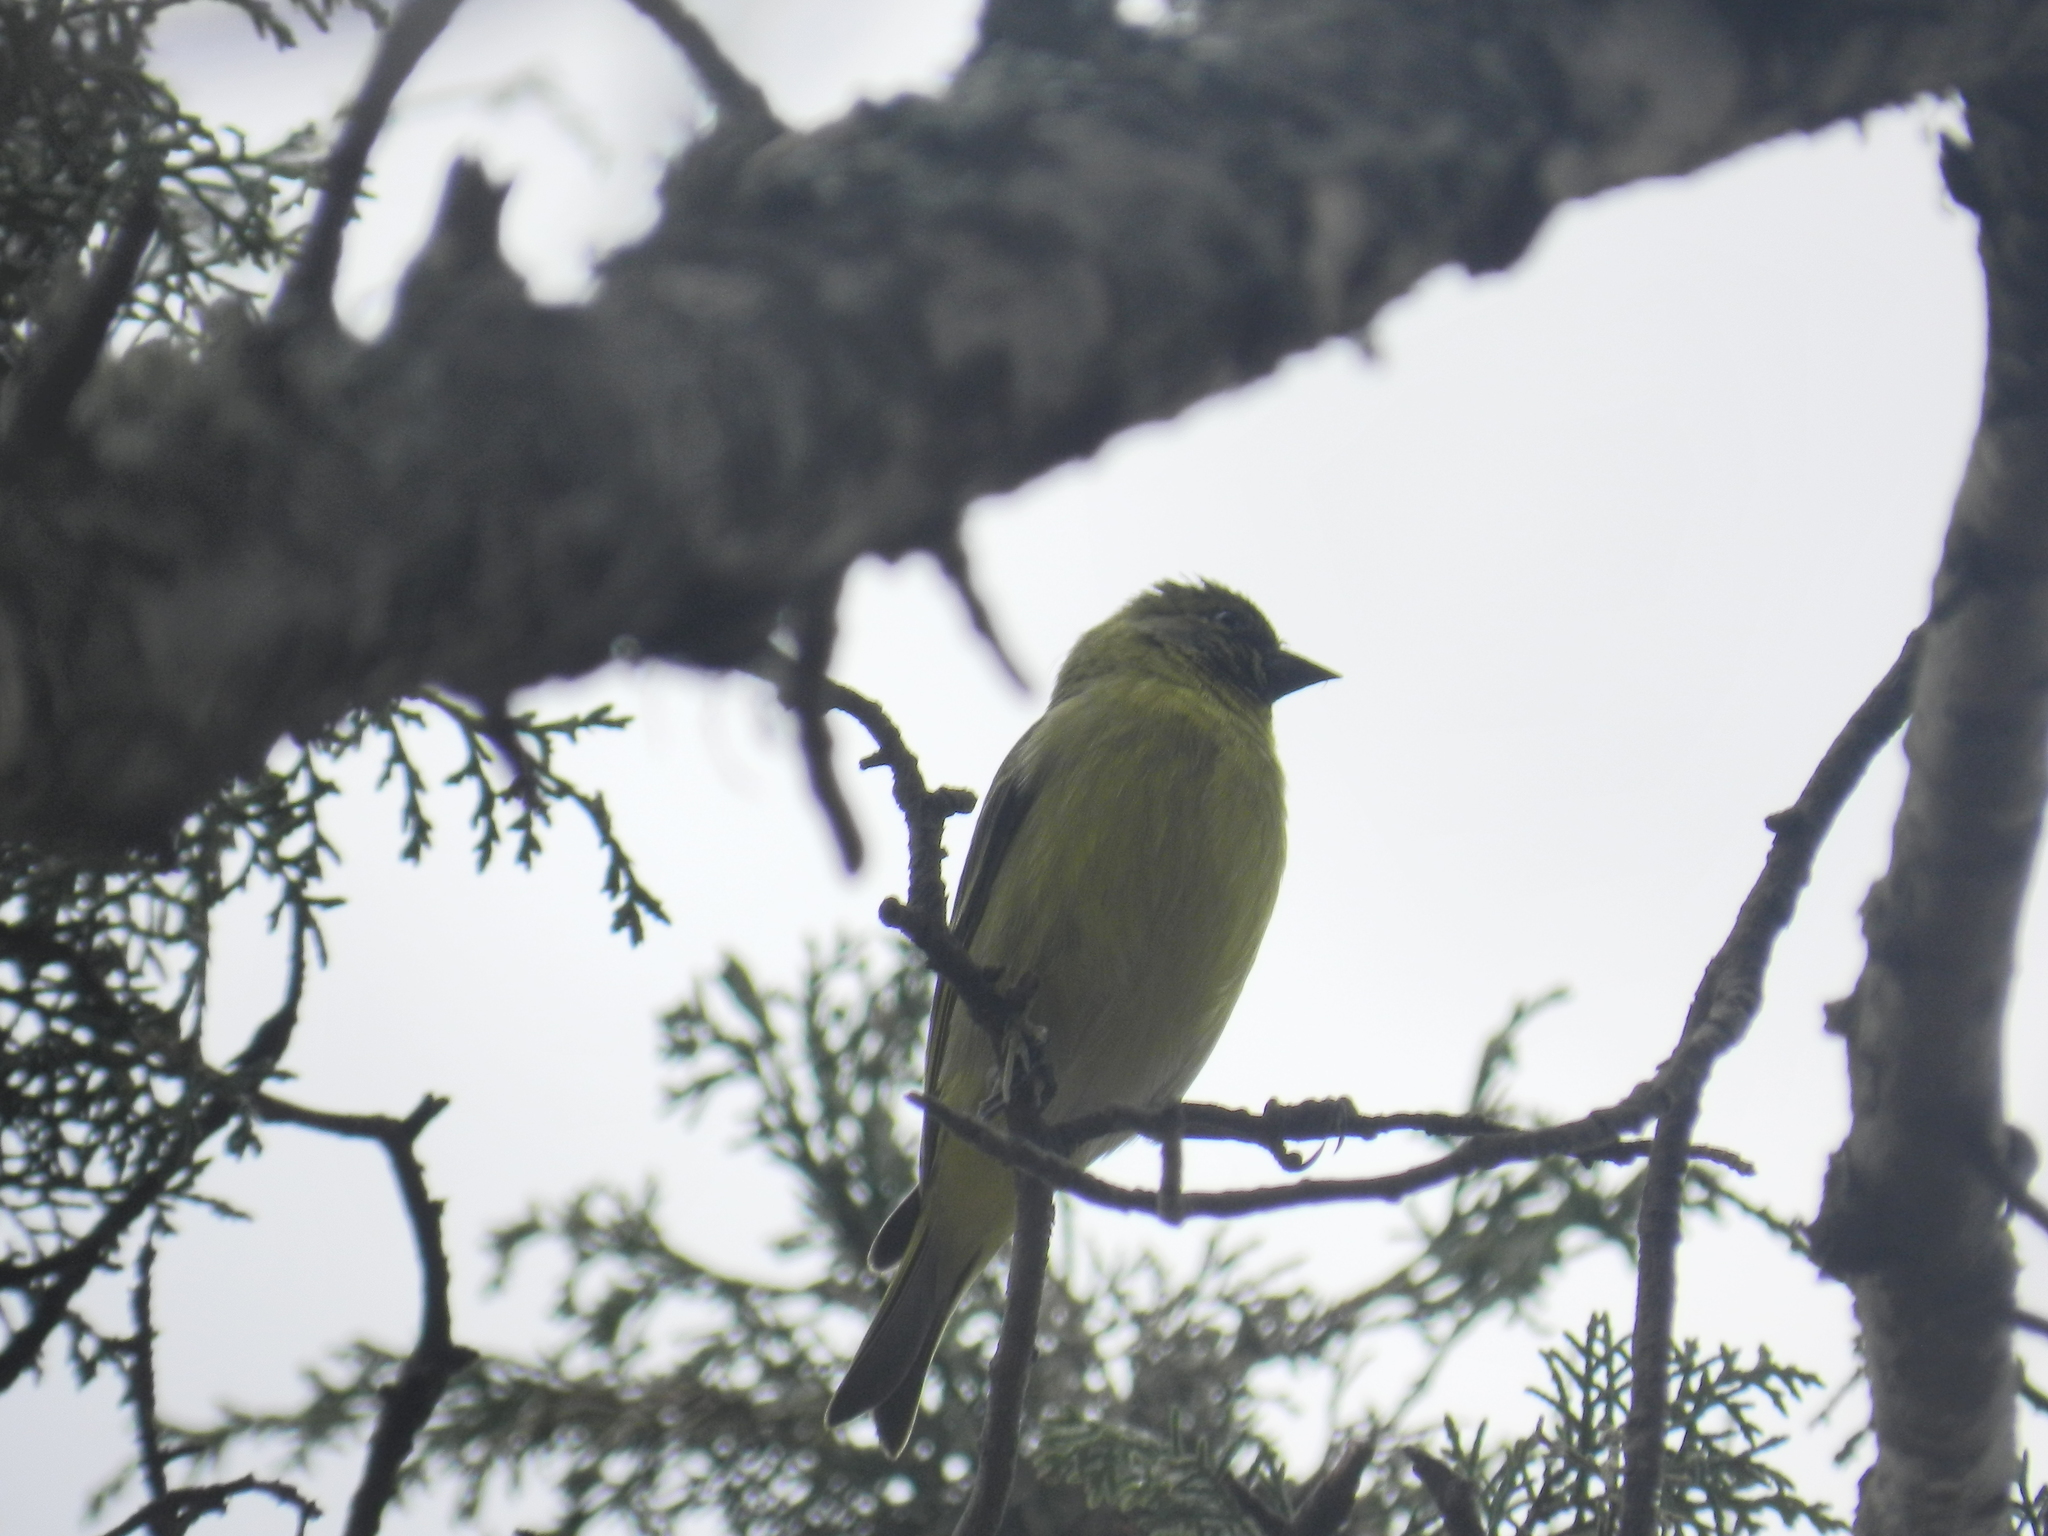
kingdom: Animalia
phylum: Chordata
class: Aves
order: Passeriformes
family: Fringillidae
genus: Spinus
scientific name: Spinus magellanicus
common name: Hooded siskin
